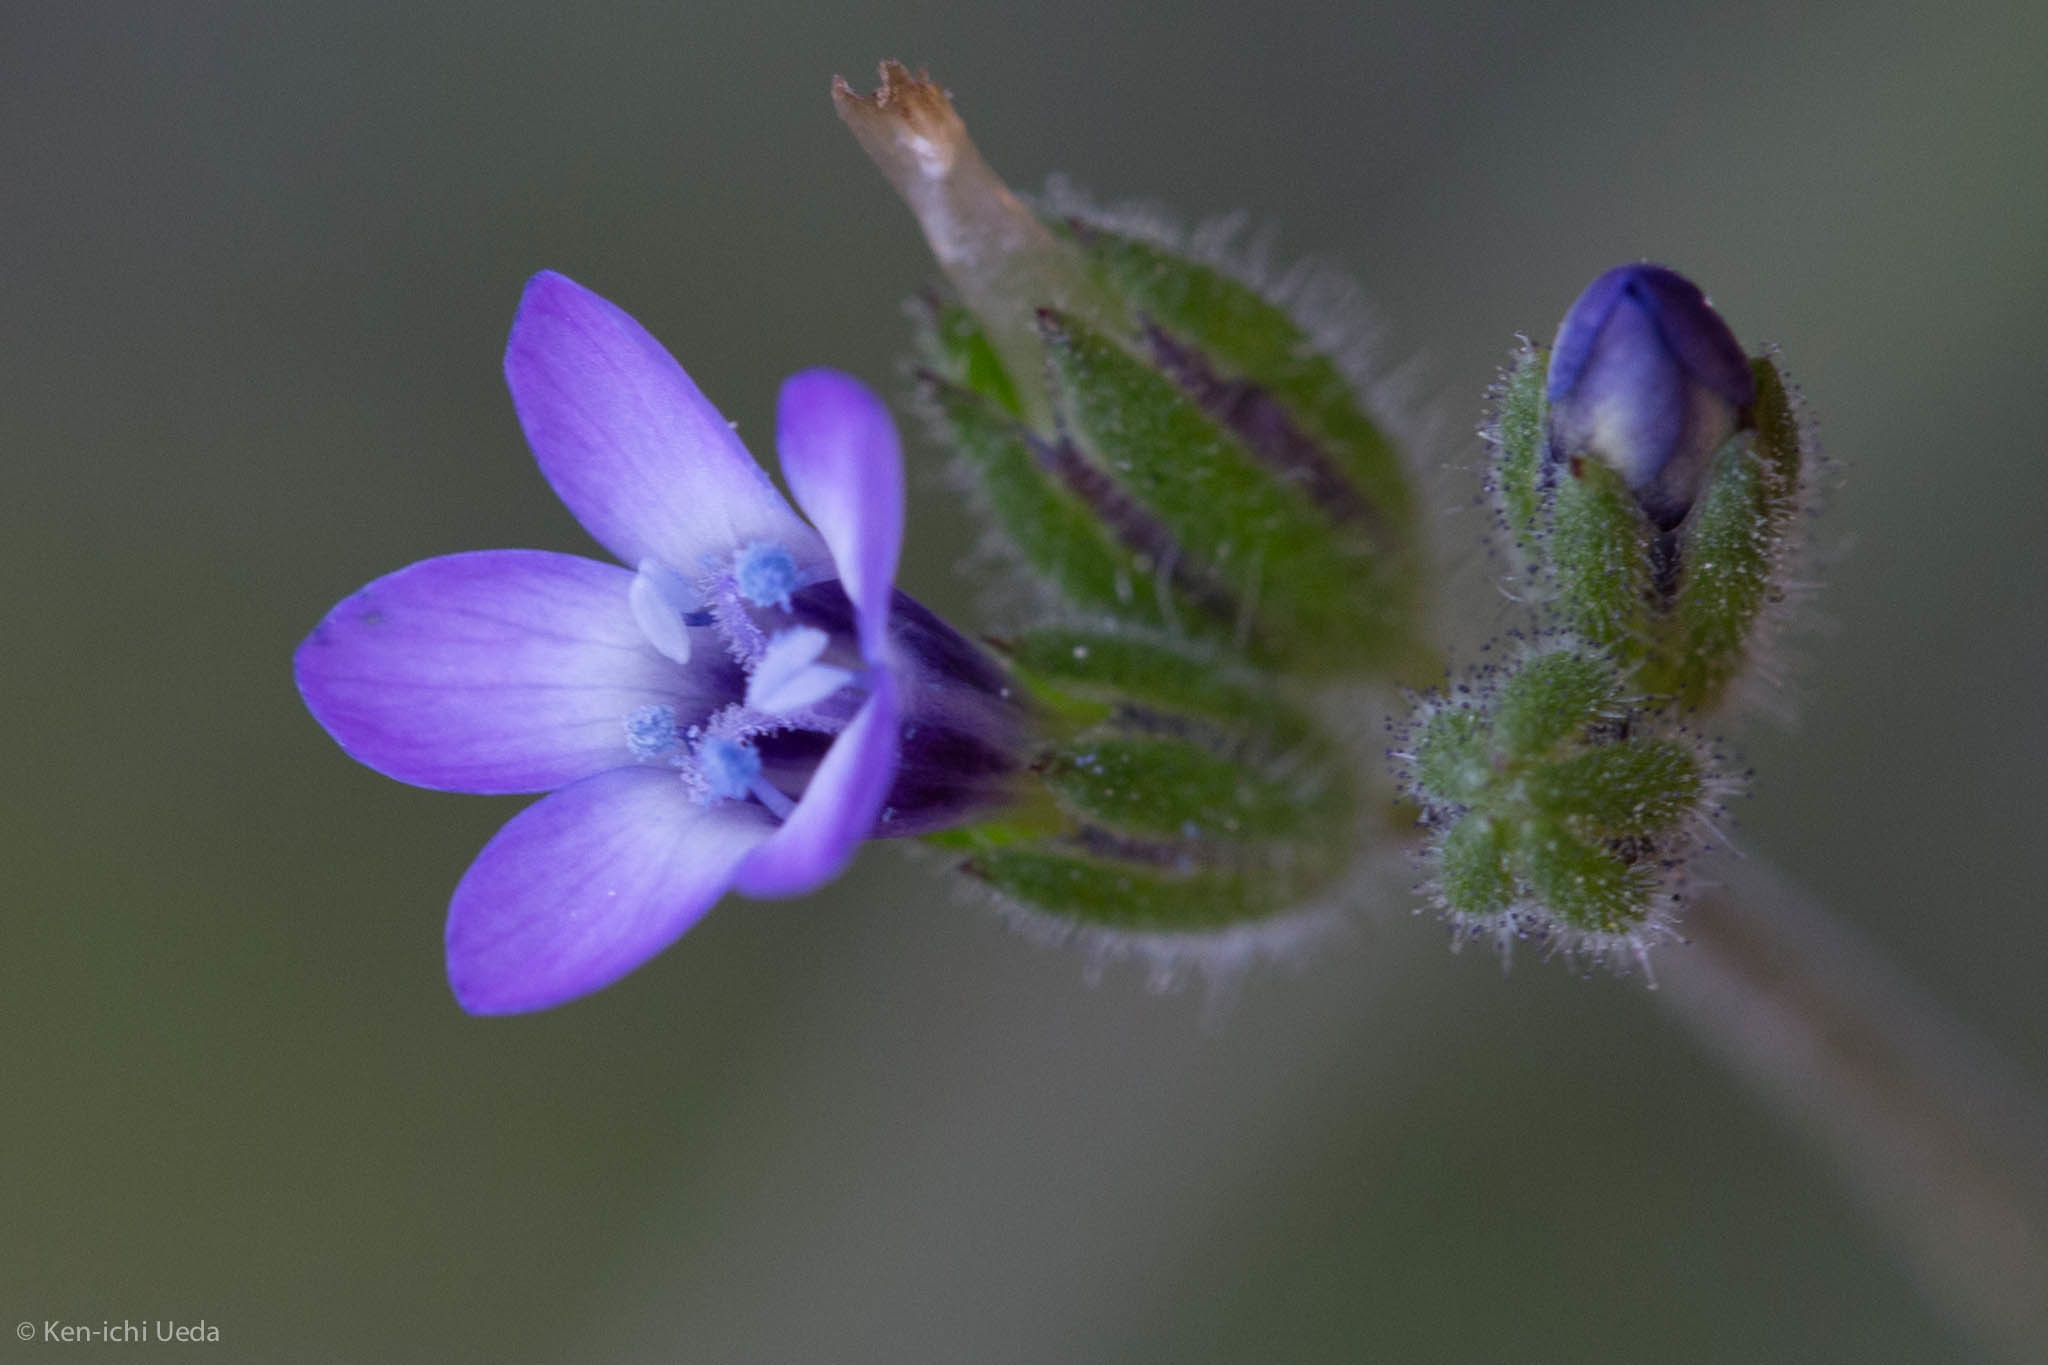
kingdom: Plantae
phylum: Tracheophyta
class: Magnoliopsida
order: Ericales
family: Polemoniaceae
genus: Gilia
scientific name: Gilia clivorum
